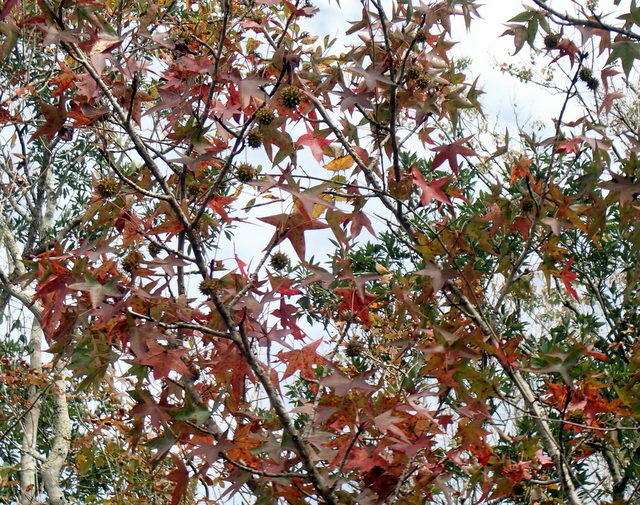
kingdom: Plantae
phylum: Tracheophyta
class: Magnoliopsida
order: Saxifragales
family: Altingiaceae
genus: Liquidambar
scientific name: Liquidambar styraciflua
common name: Sweet gum
